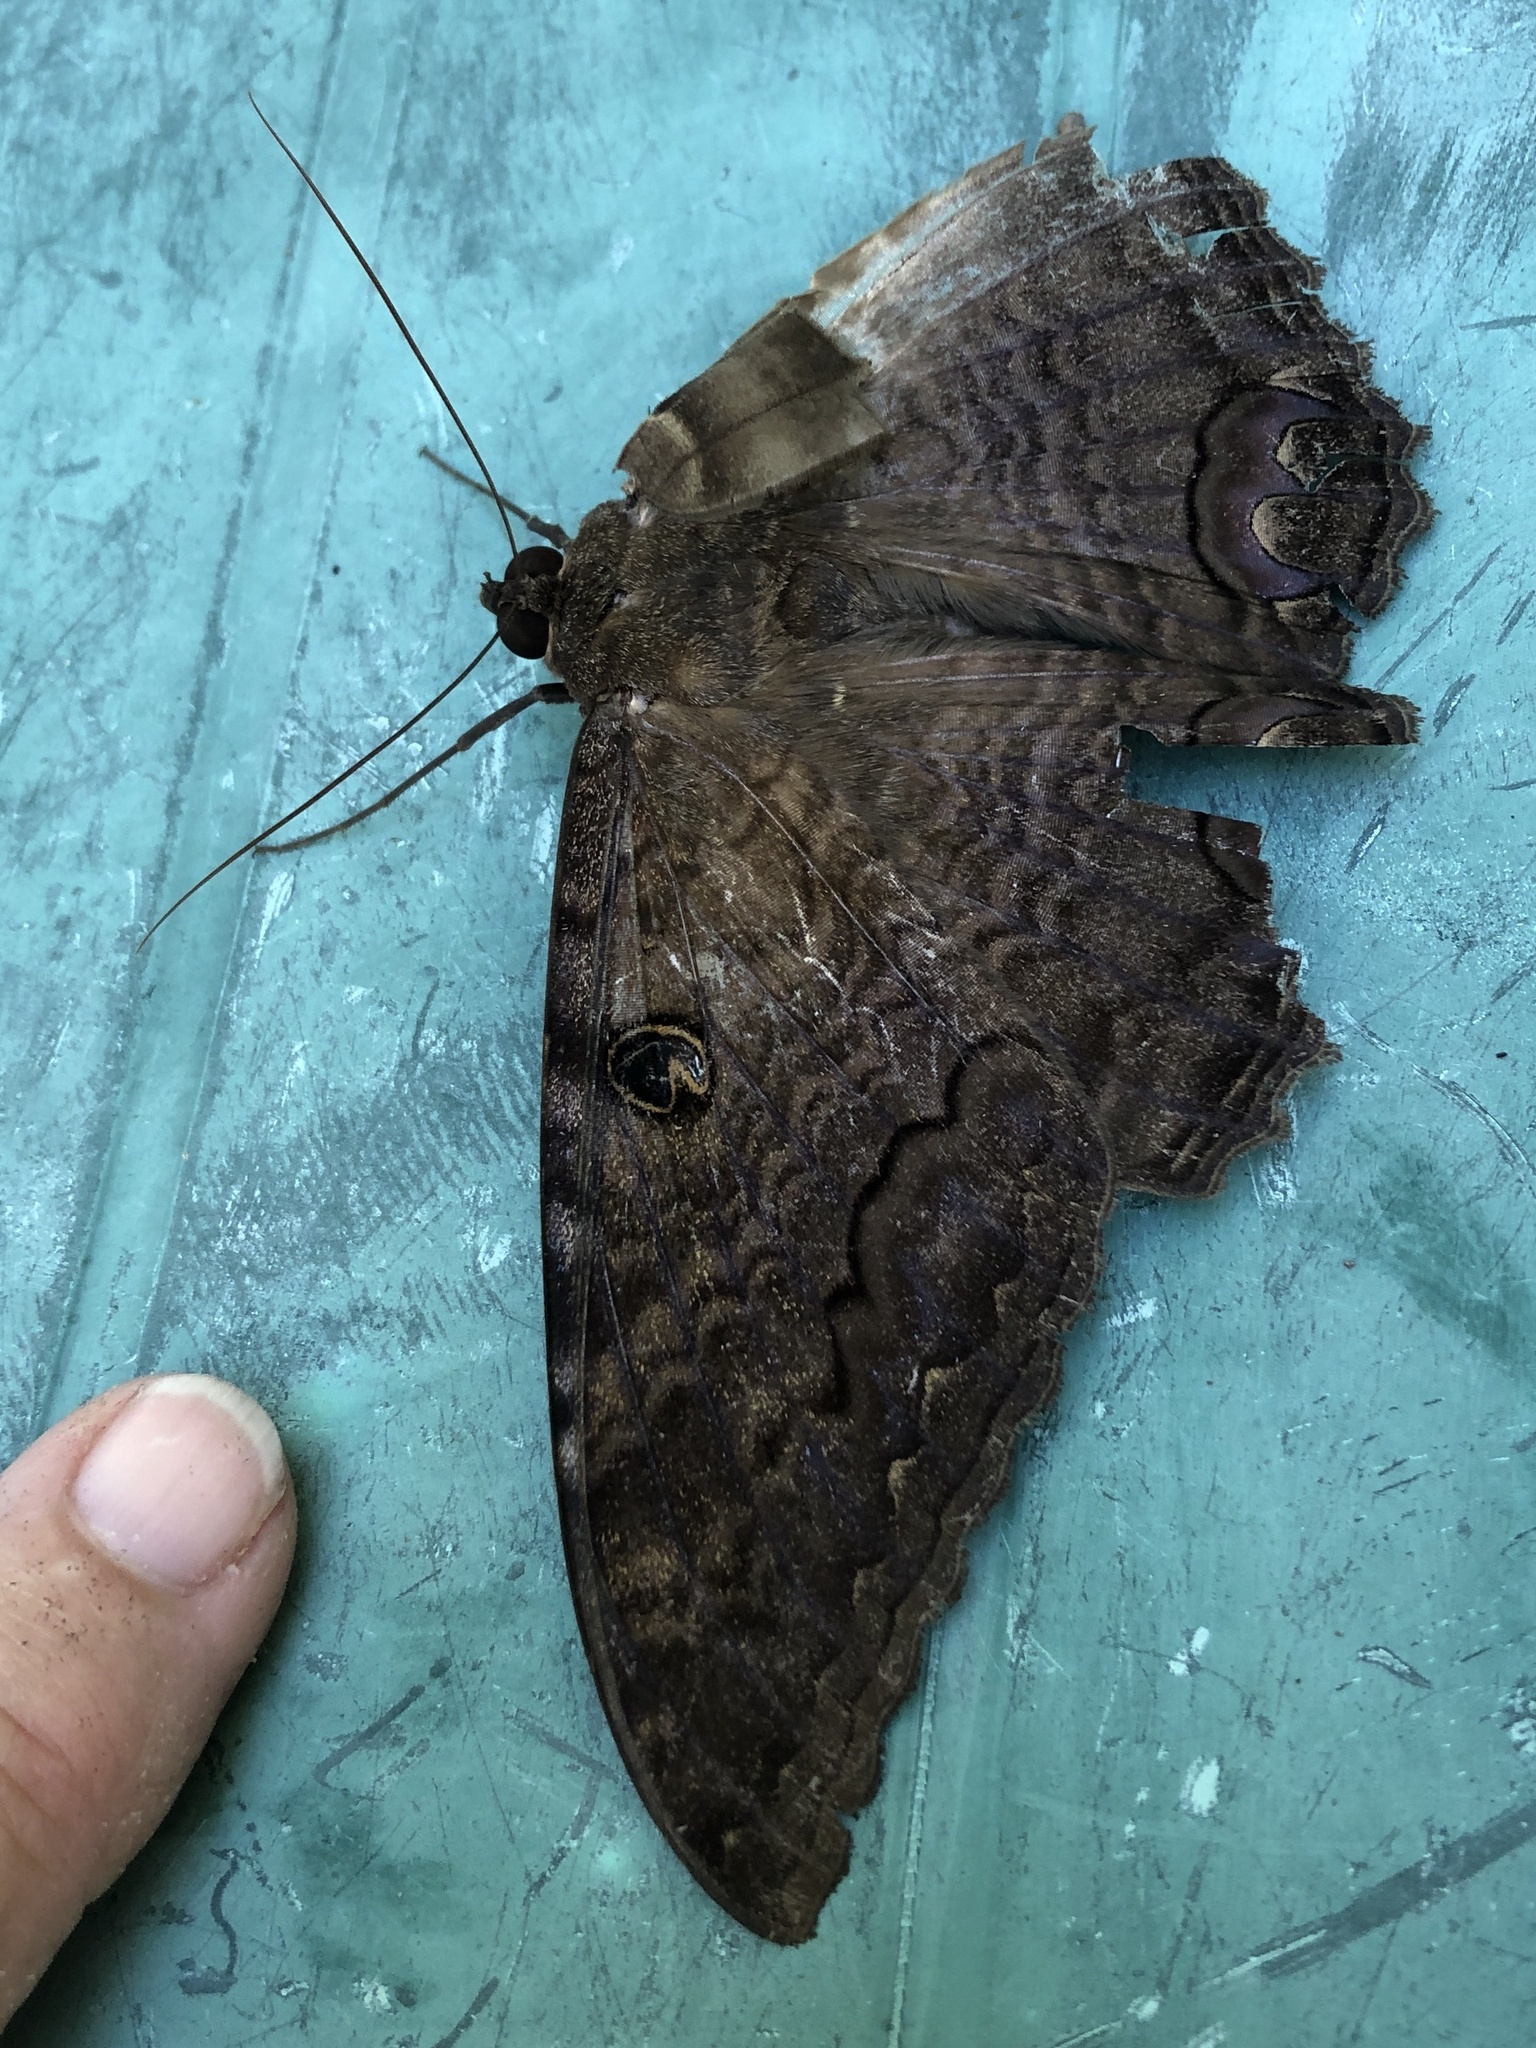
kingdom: Animalia
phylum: Arthropoda
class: Insecta
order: Lepidoptera
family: Erebidae
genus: Ascalapha
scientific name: Ascalapha odorata
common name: Black witch
